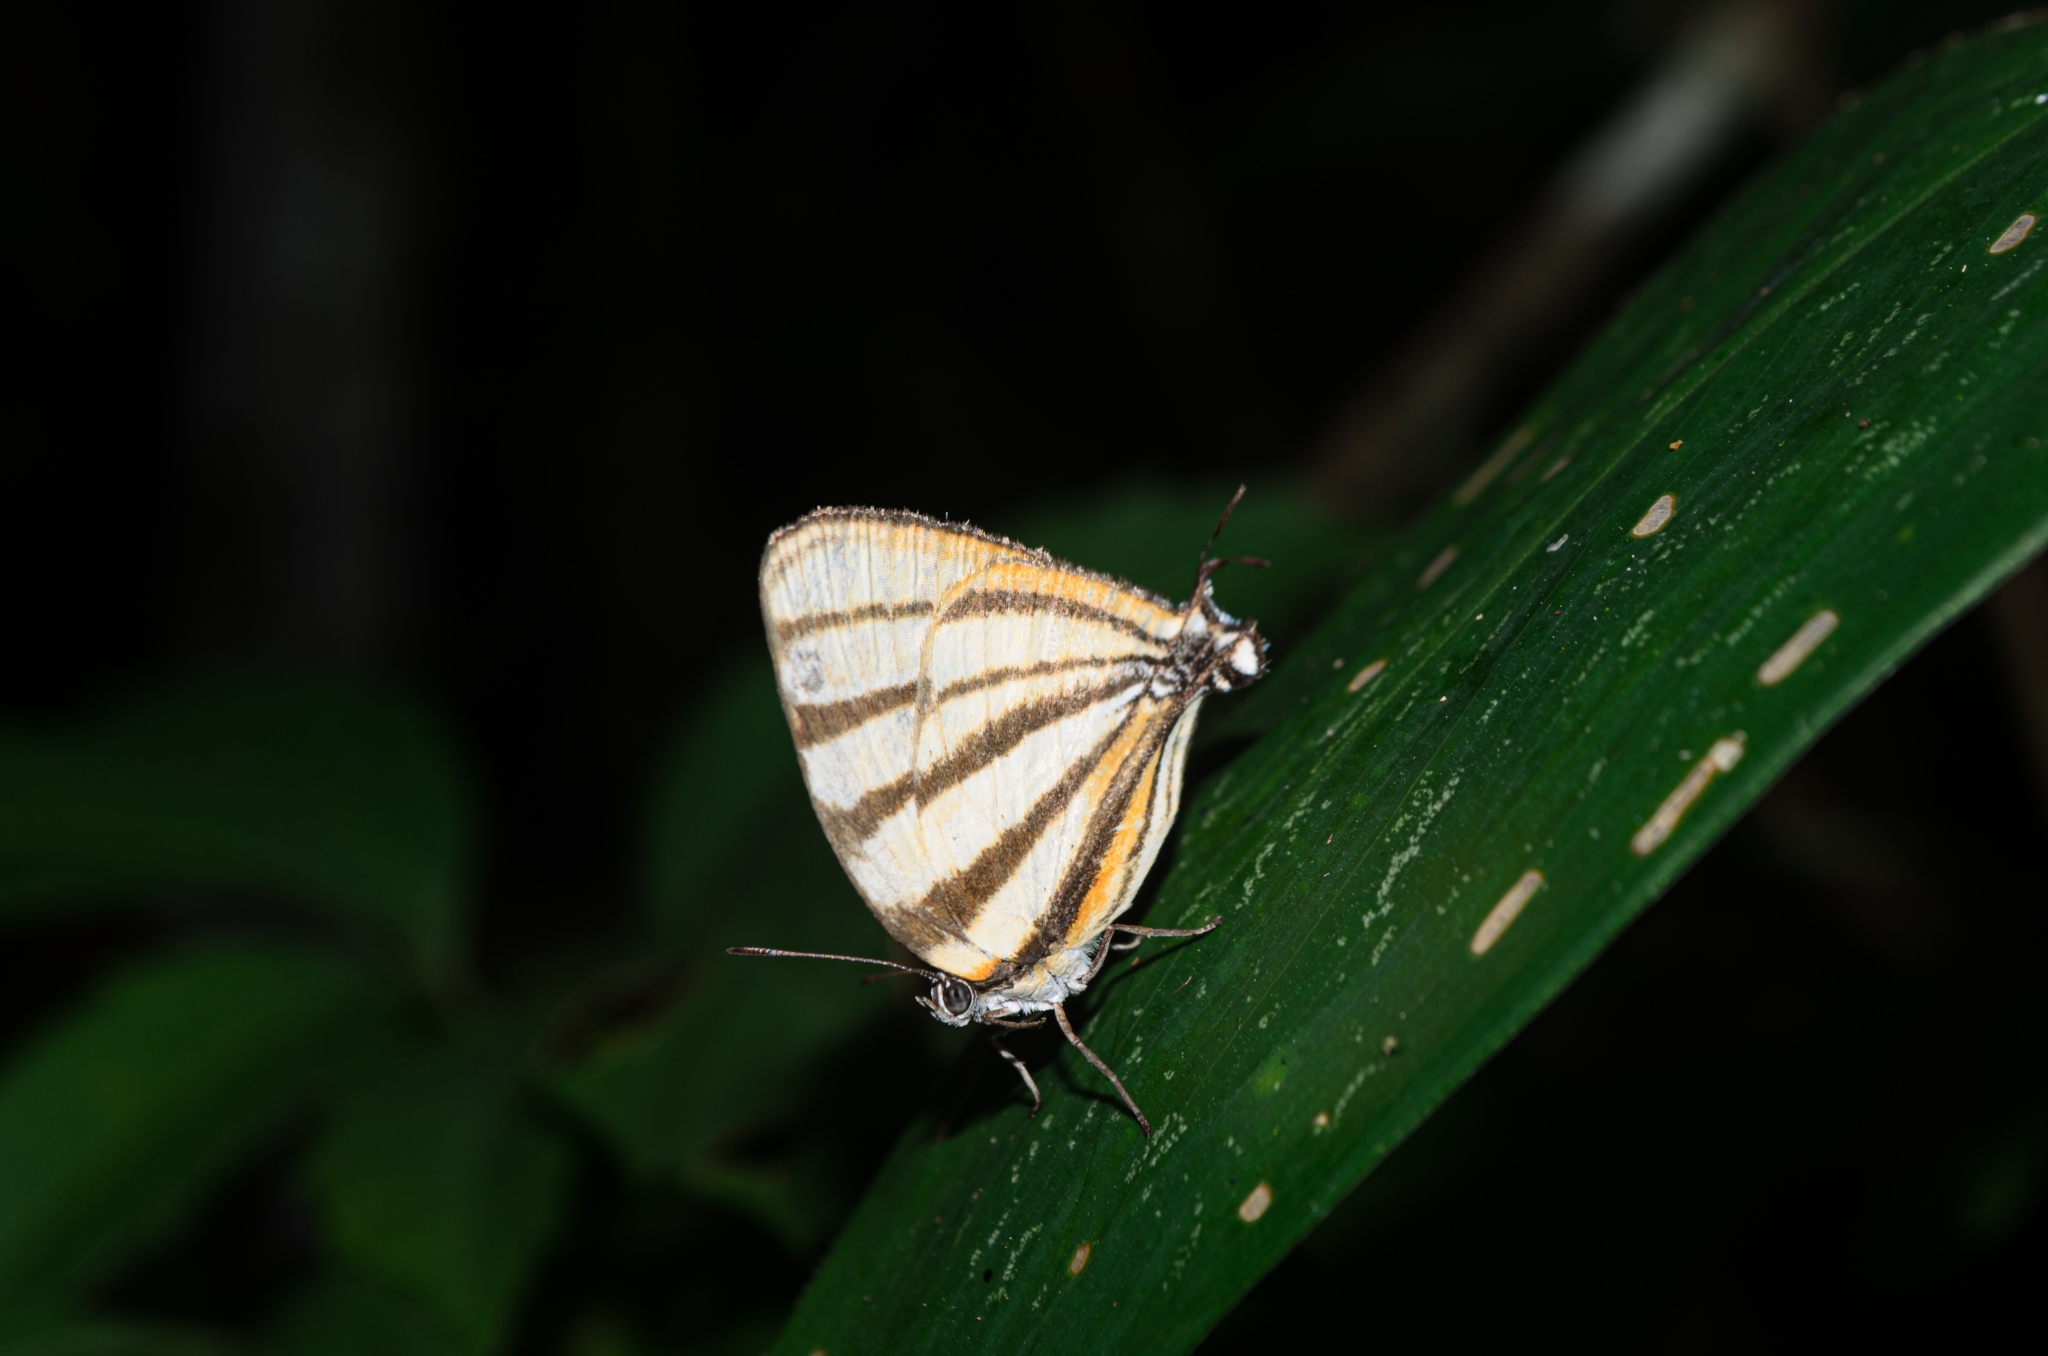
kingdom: Animalia
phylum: Arthropoda
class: Insecta
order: Lepidoptera
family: Lycaenidae
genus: Arawacus
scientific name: Arawacus separata
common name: Separated stripestreak
